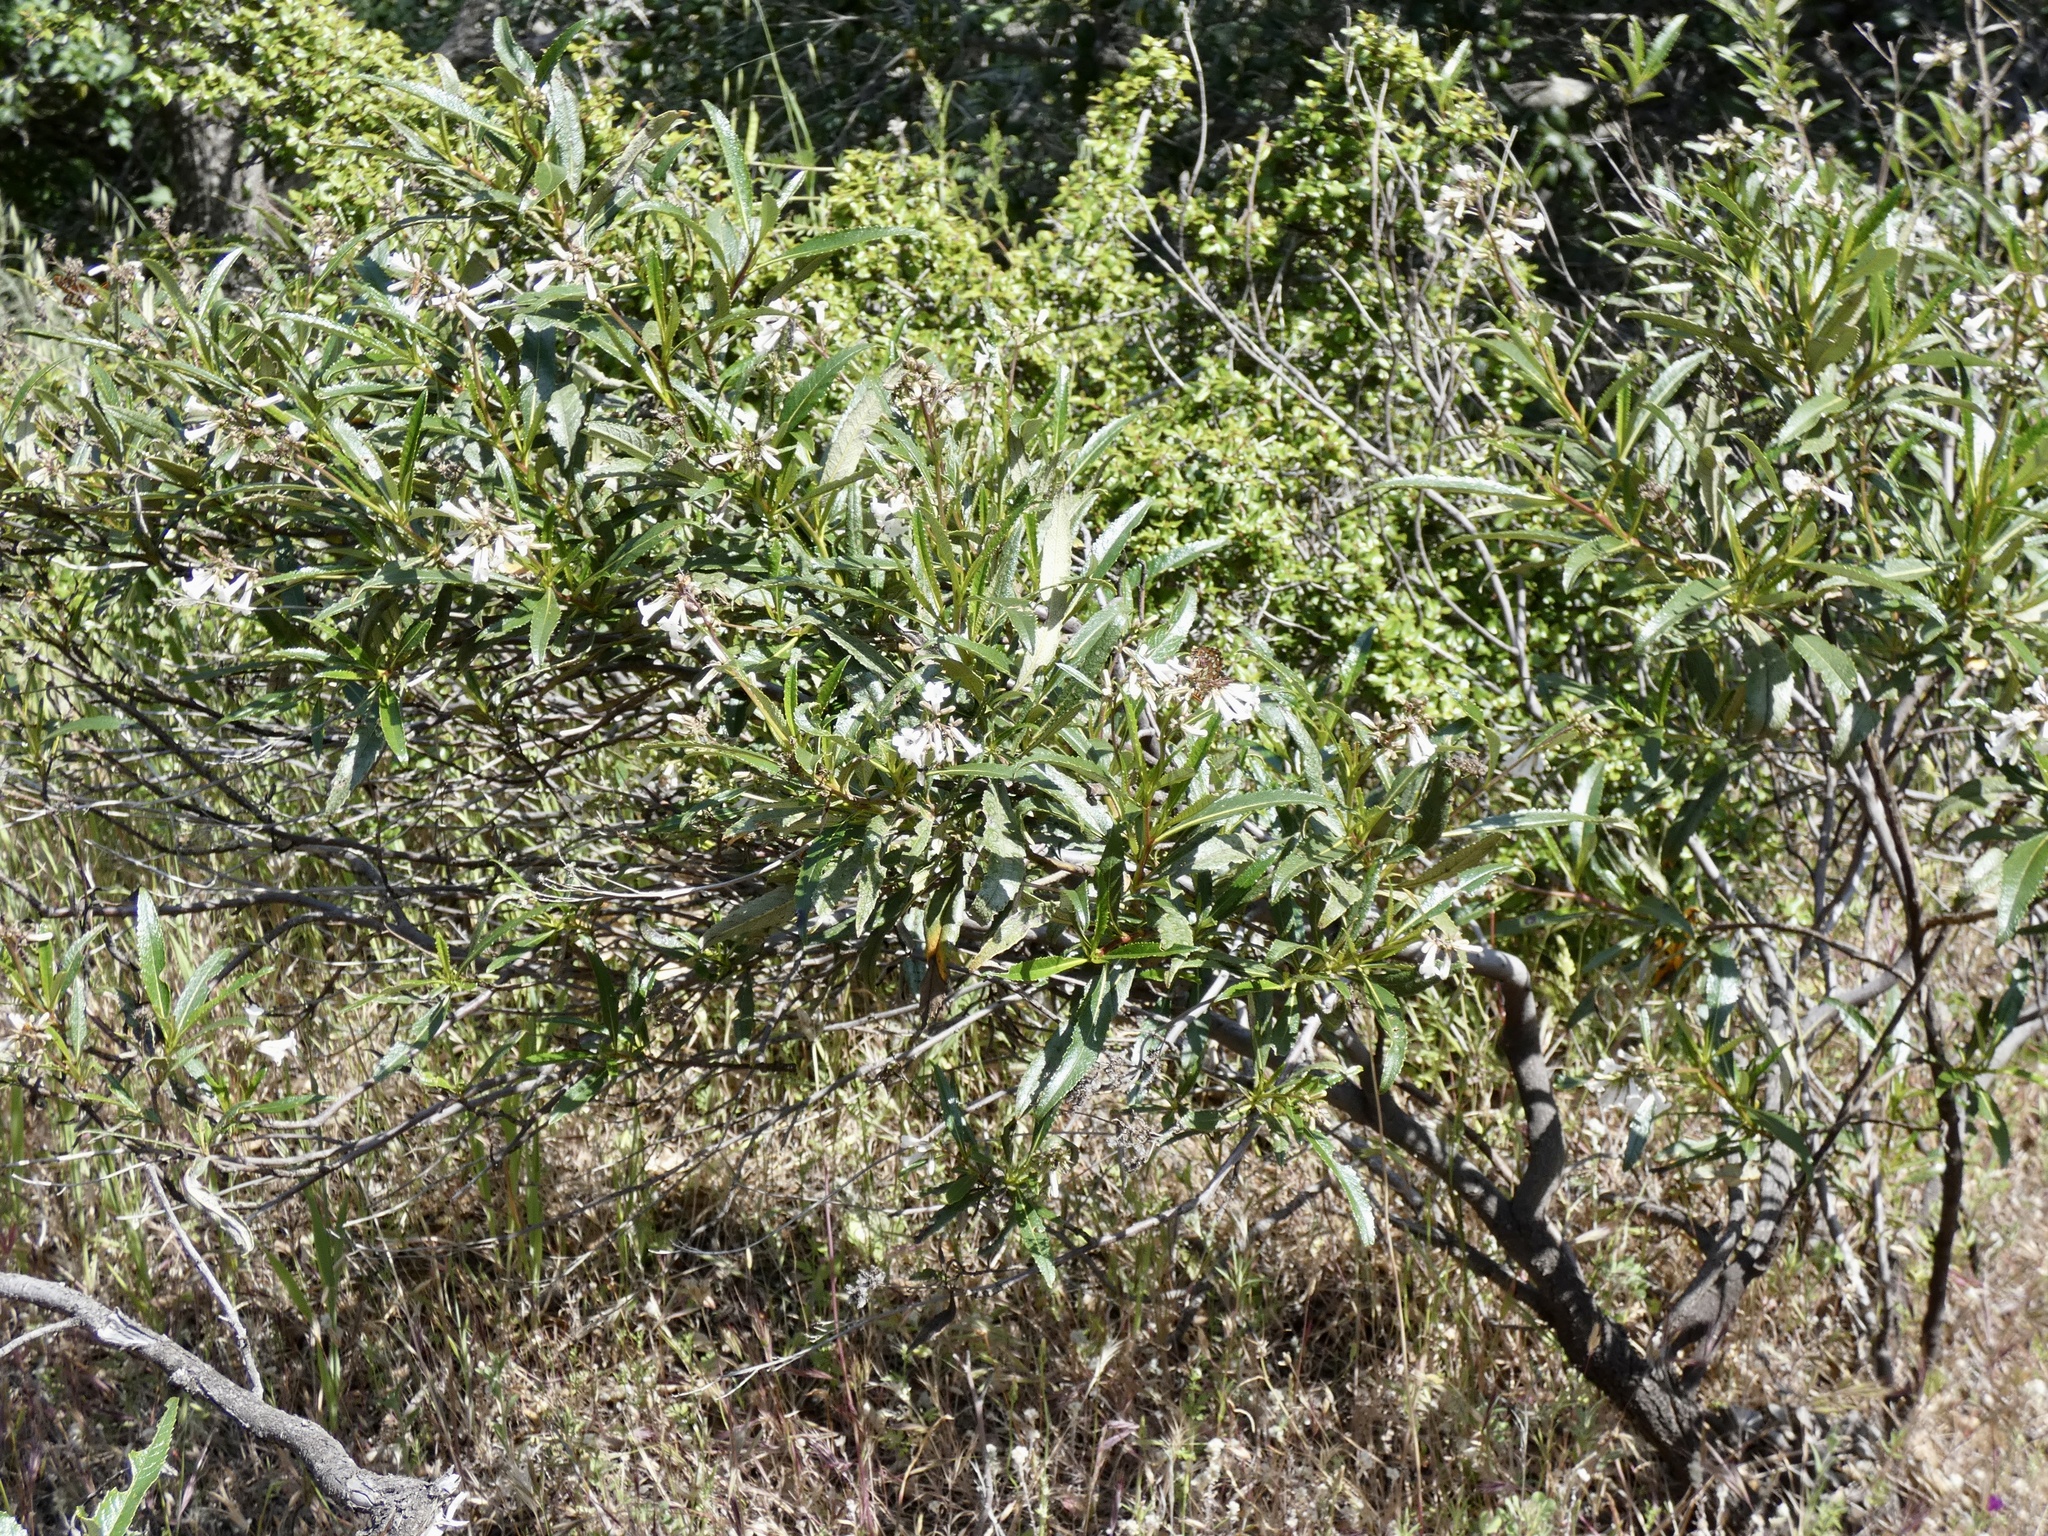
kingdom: Plantae
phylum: Tracheophyta
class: Magnoliopsida
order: Boraginales
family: Namaceae
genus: Eriodictyon
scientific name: Eriodictyon californicum
